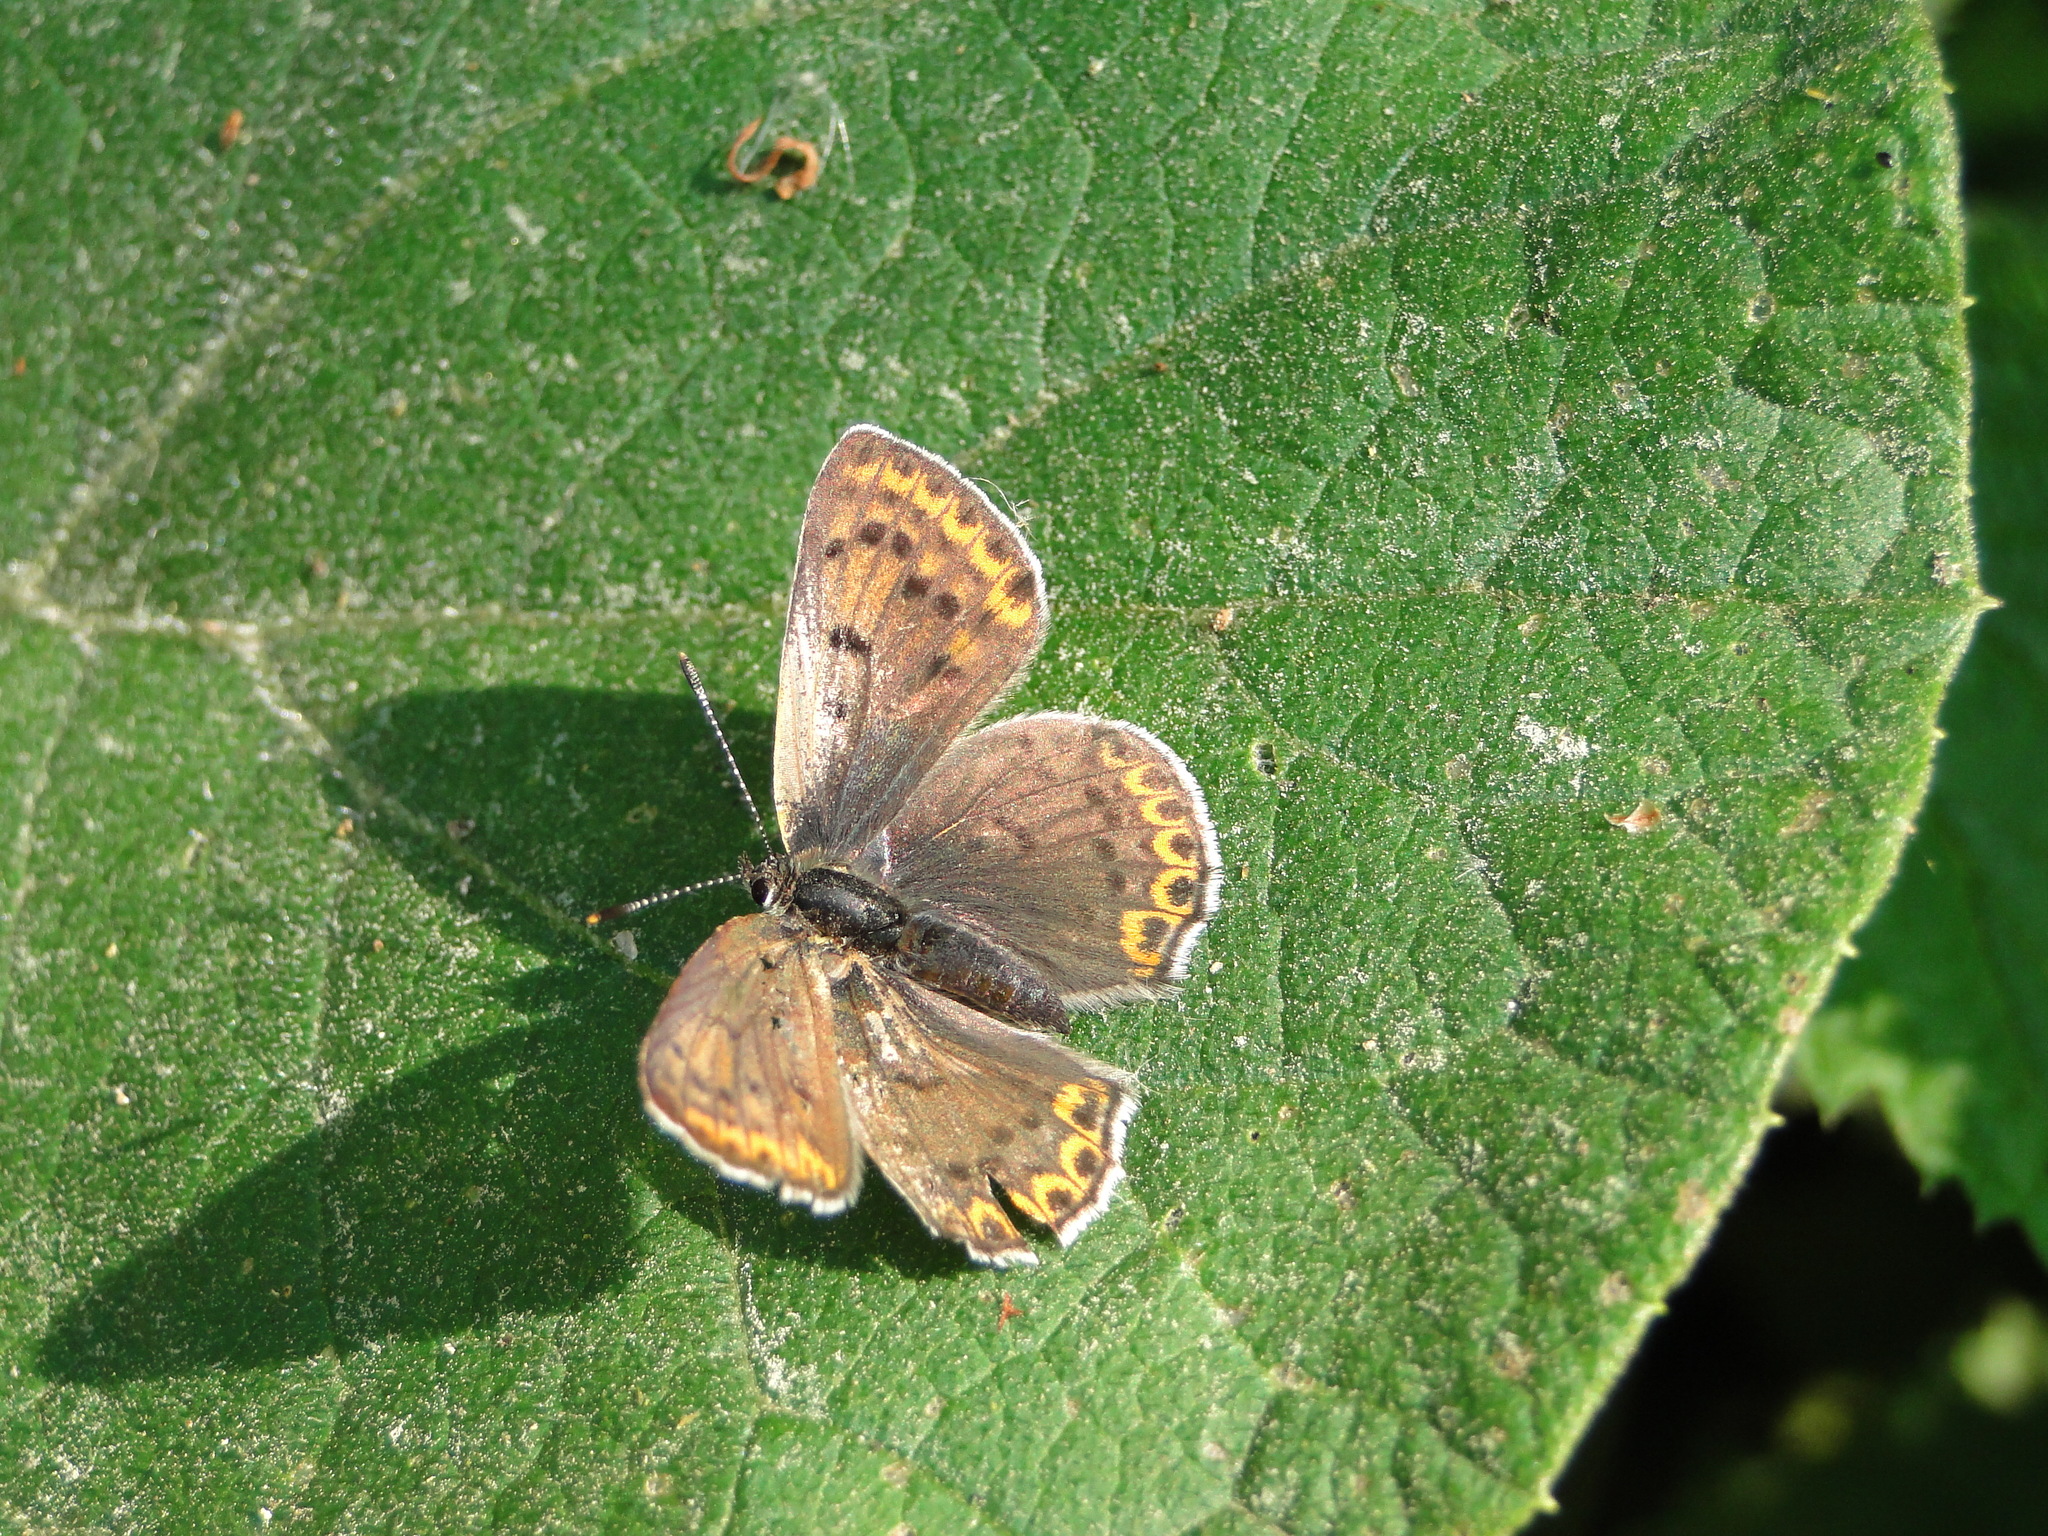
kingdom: Animalia
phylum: Arthropoda
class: Insecta
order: Lepidoptera
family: Lycaenidae
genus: Loweia
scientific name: Loweia tityrus
